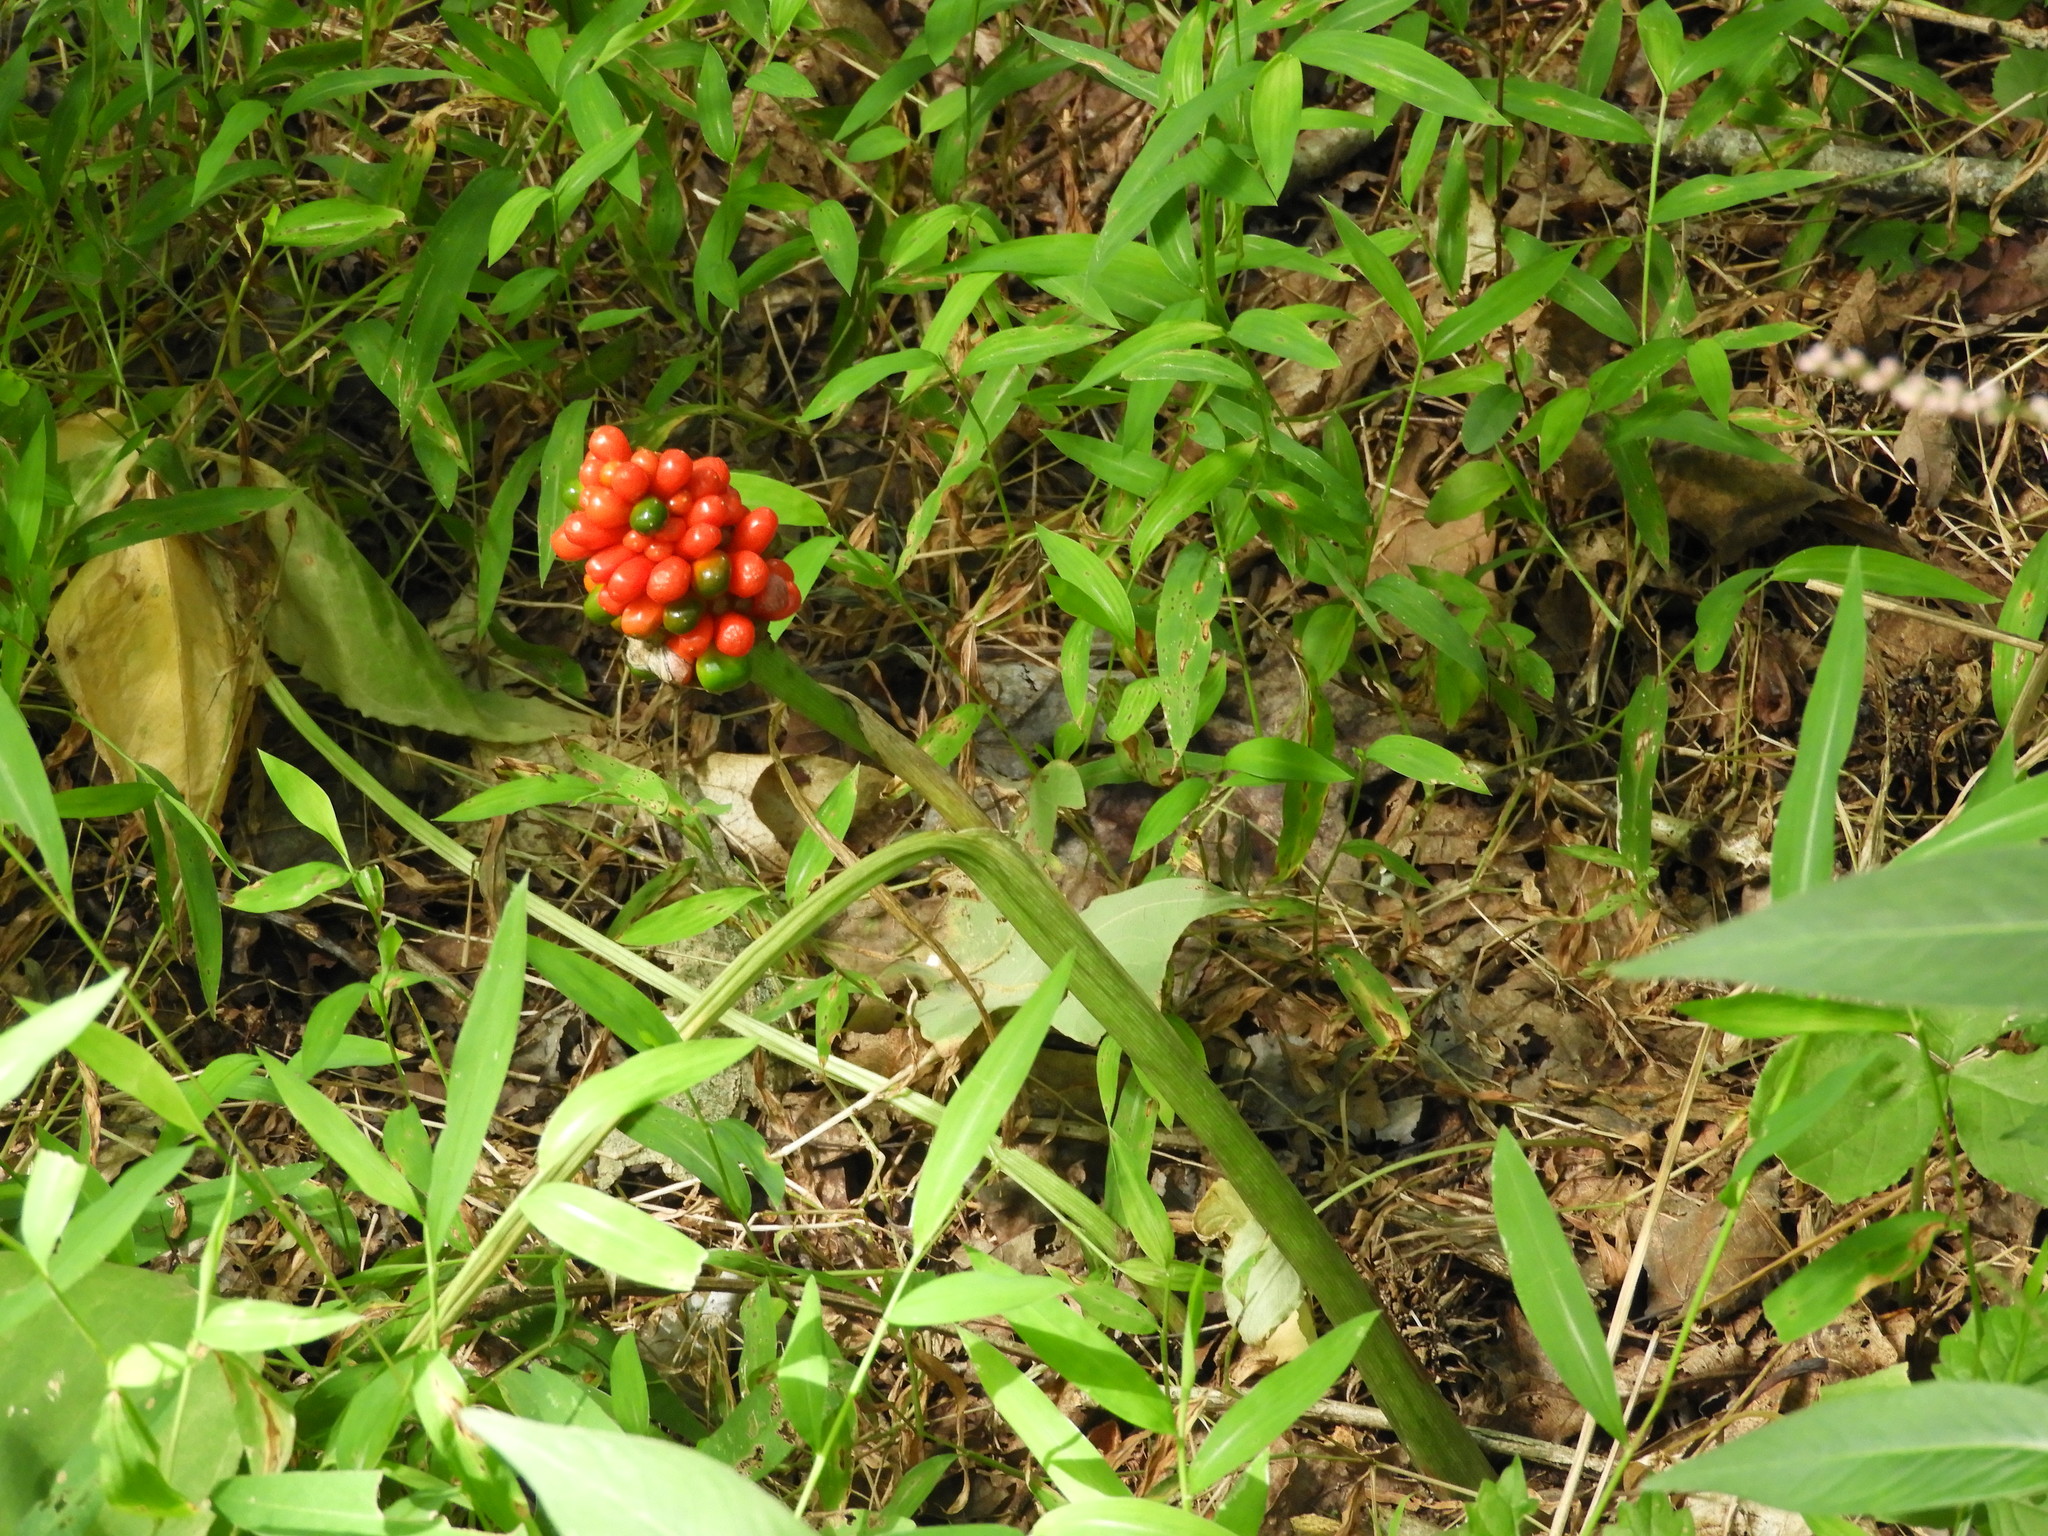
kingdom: Plantae
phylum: Tracheophyta
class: Liliopsida
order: Alismatales
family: Araceae
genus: Arisaema
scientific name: Arisaema triphyllum
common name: Jack-in-the-pulpit
